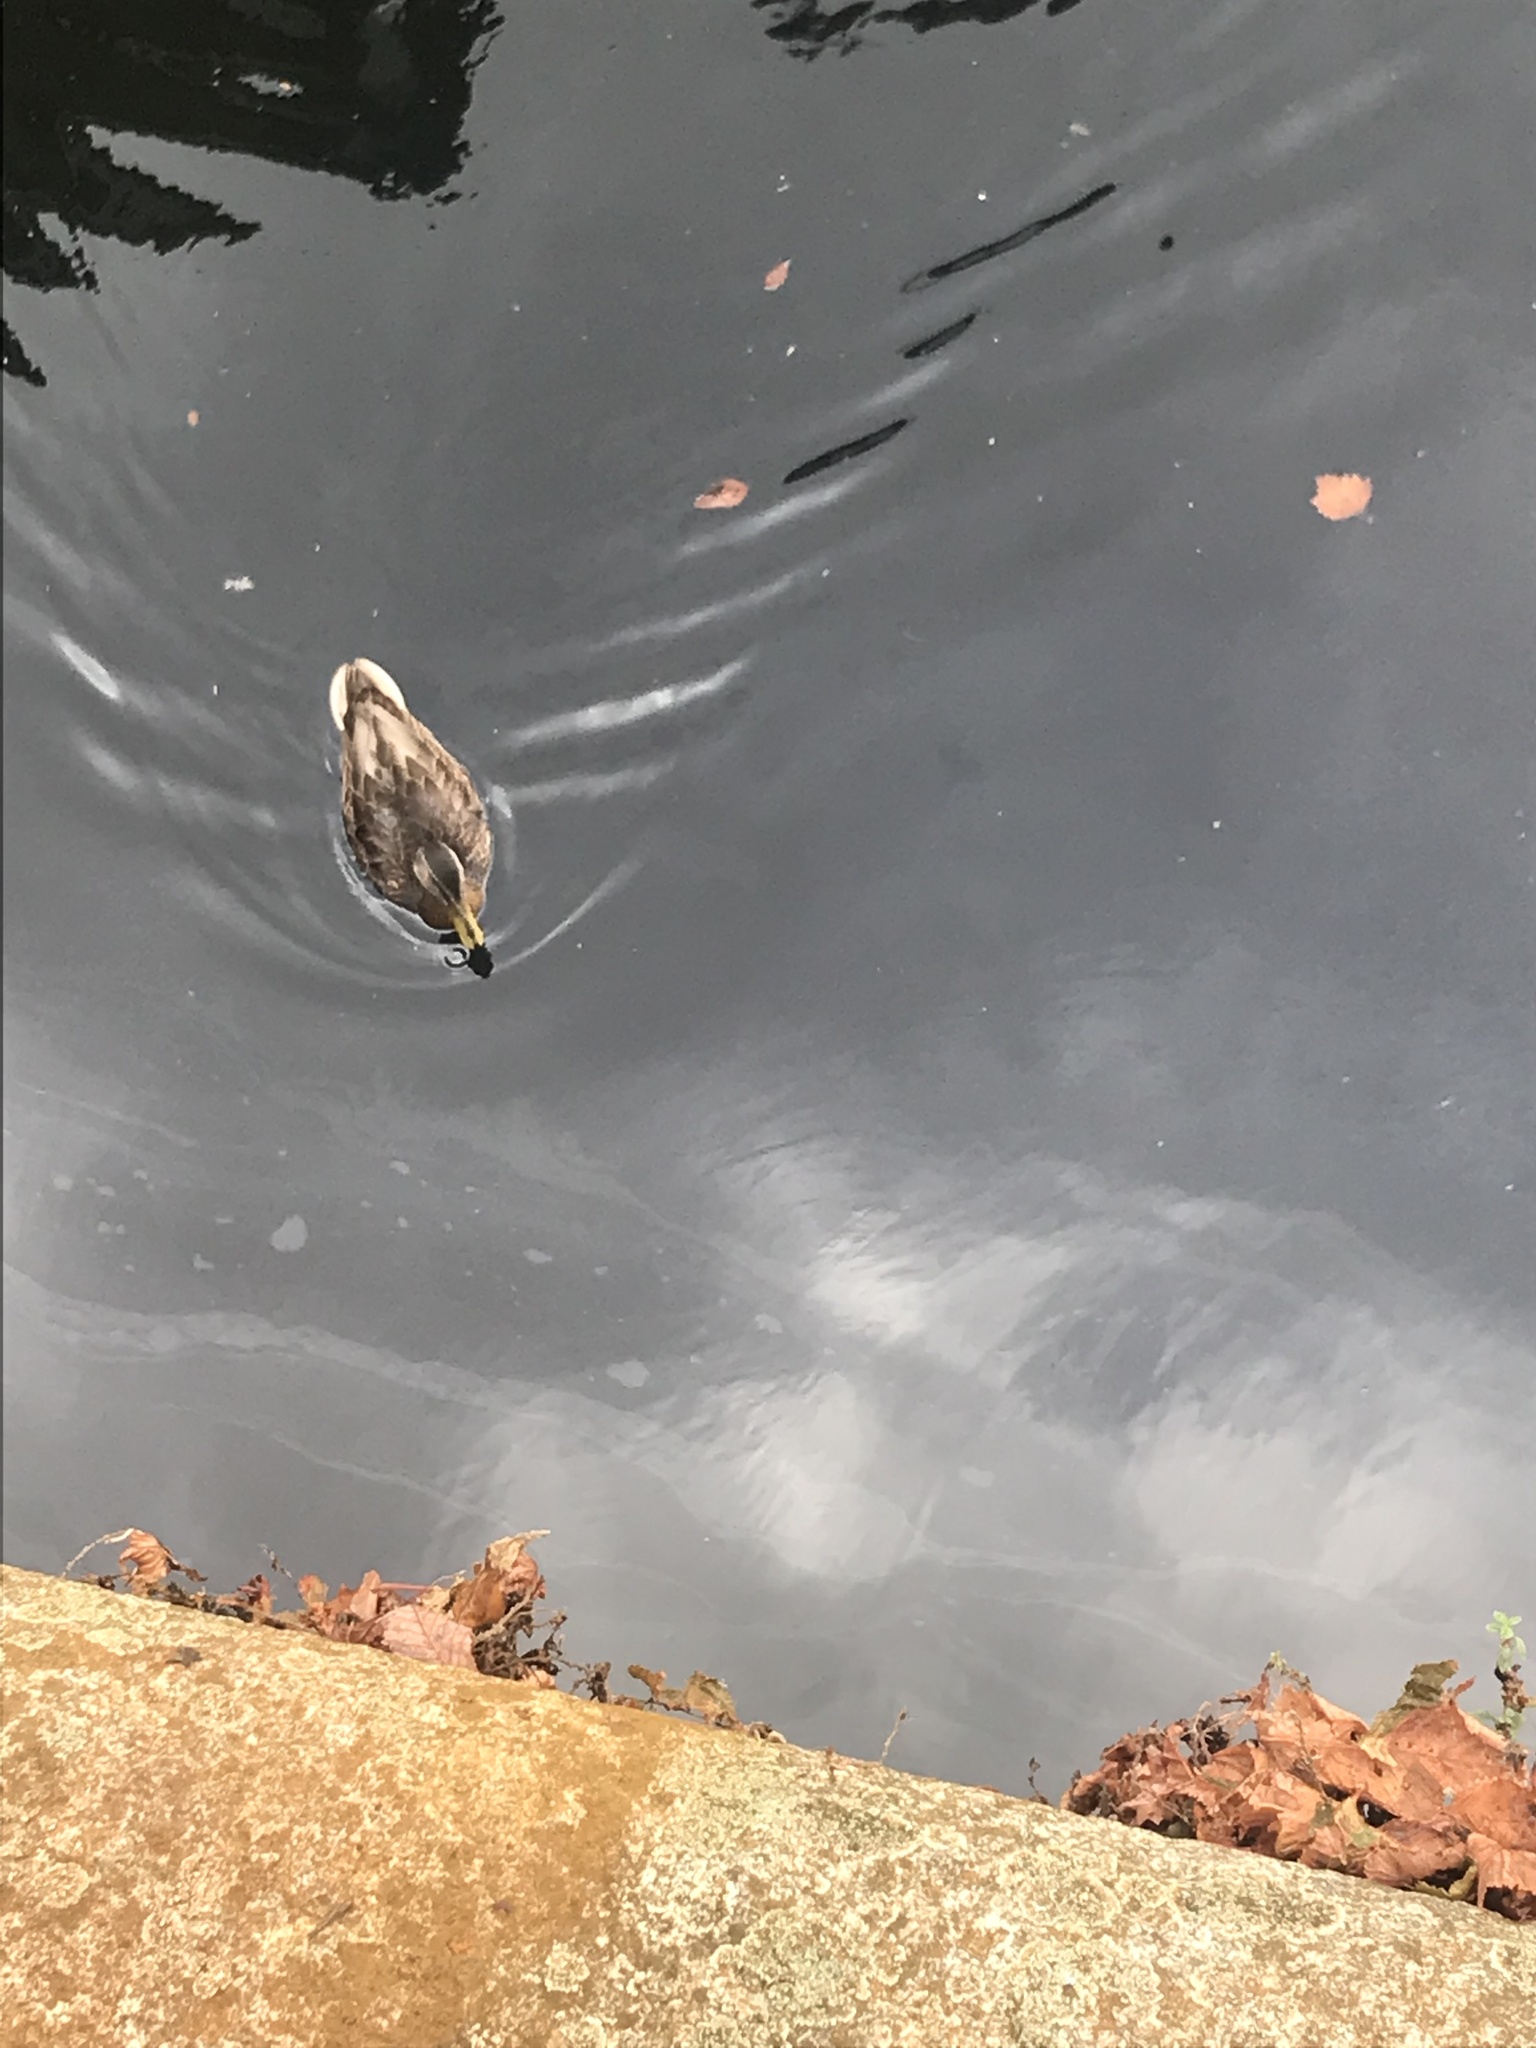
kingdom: Animalia
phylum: Chordata
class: Aves
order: Anseriformes
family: Anatidae
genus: Anas
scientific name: Anas platyrhynchos
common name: Mallard
